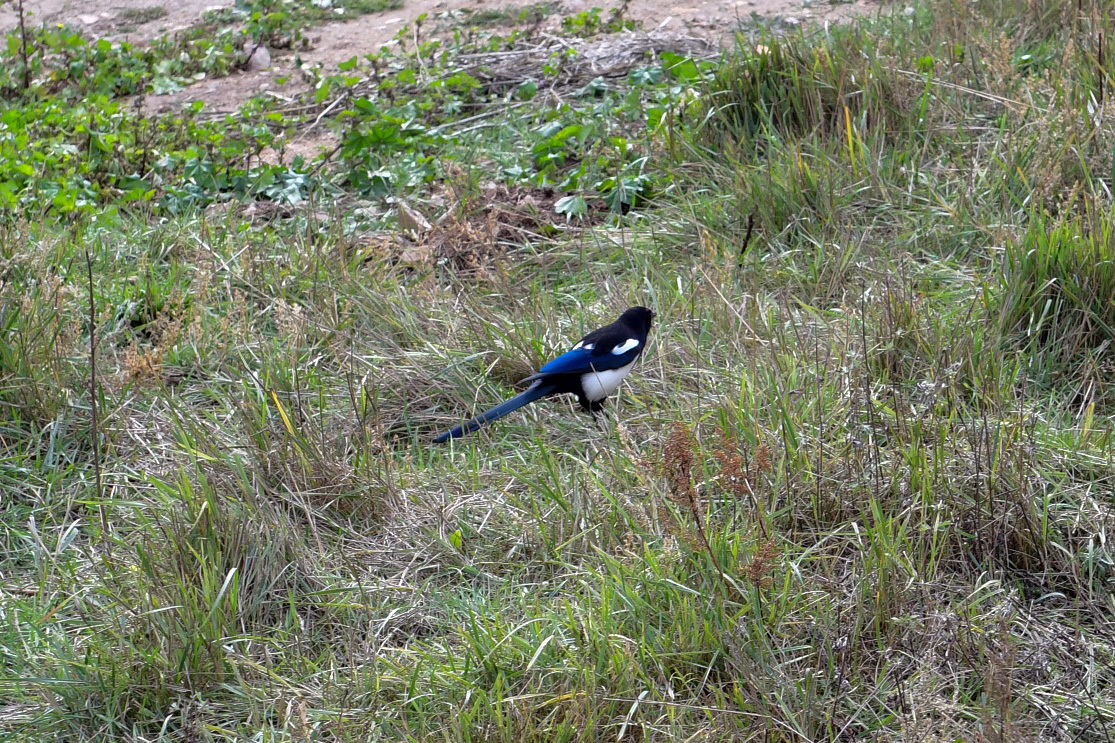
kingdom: Animalia
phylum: Chordata
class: Aves
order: Passeriformes
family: Corvidae
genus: Pica
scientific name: Pica serica
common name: Oriental magpie
